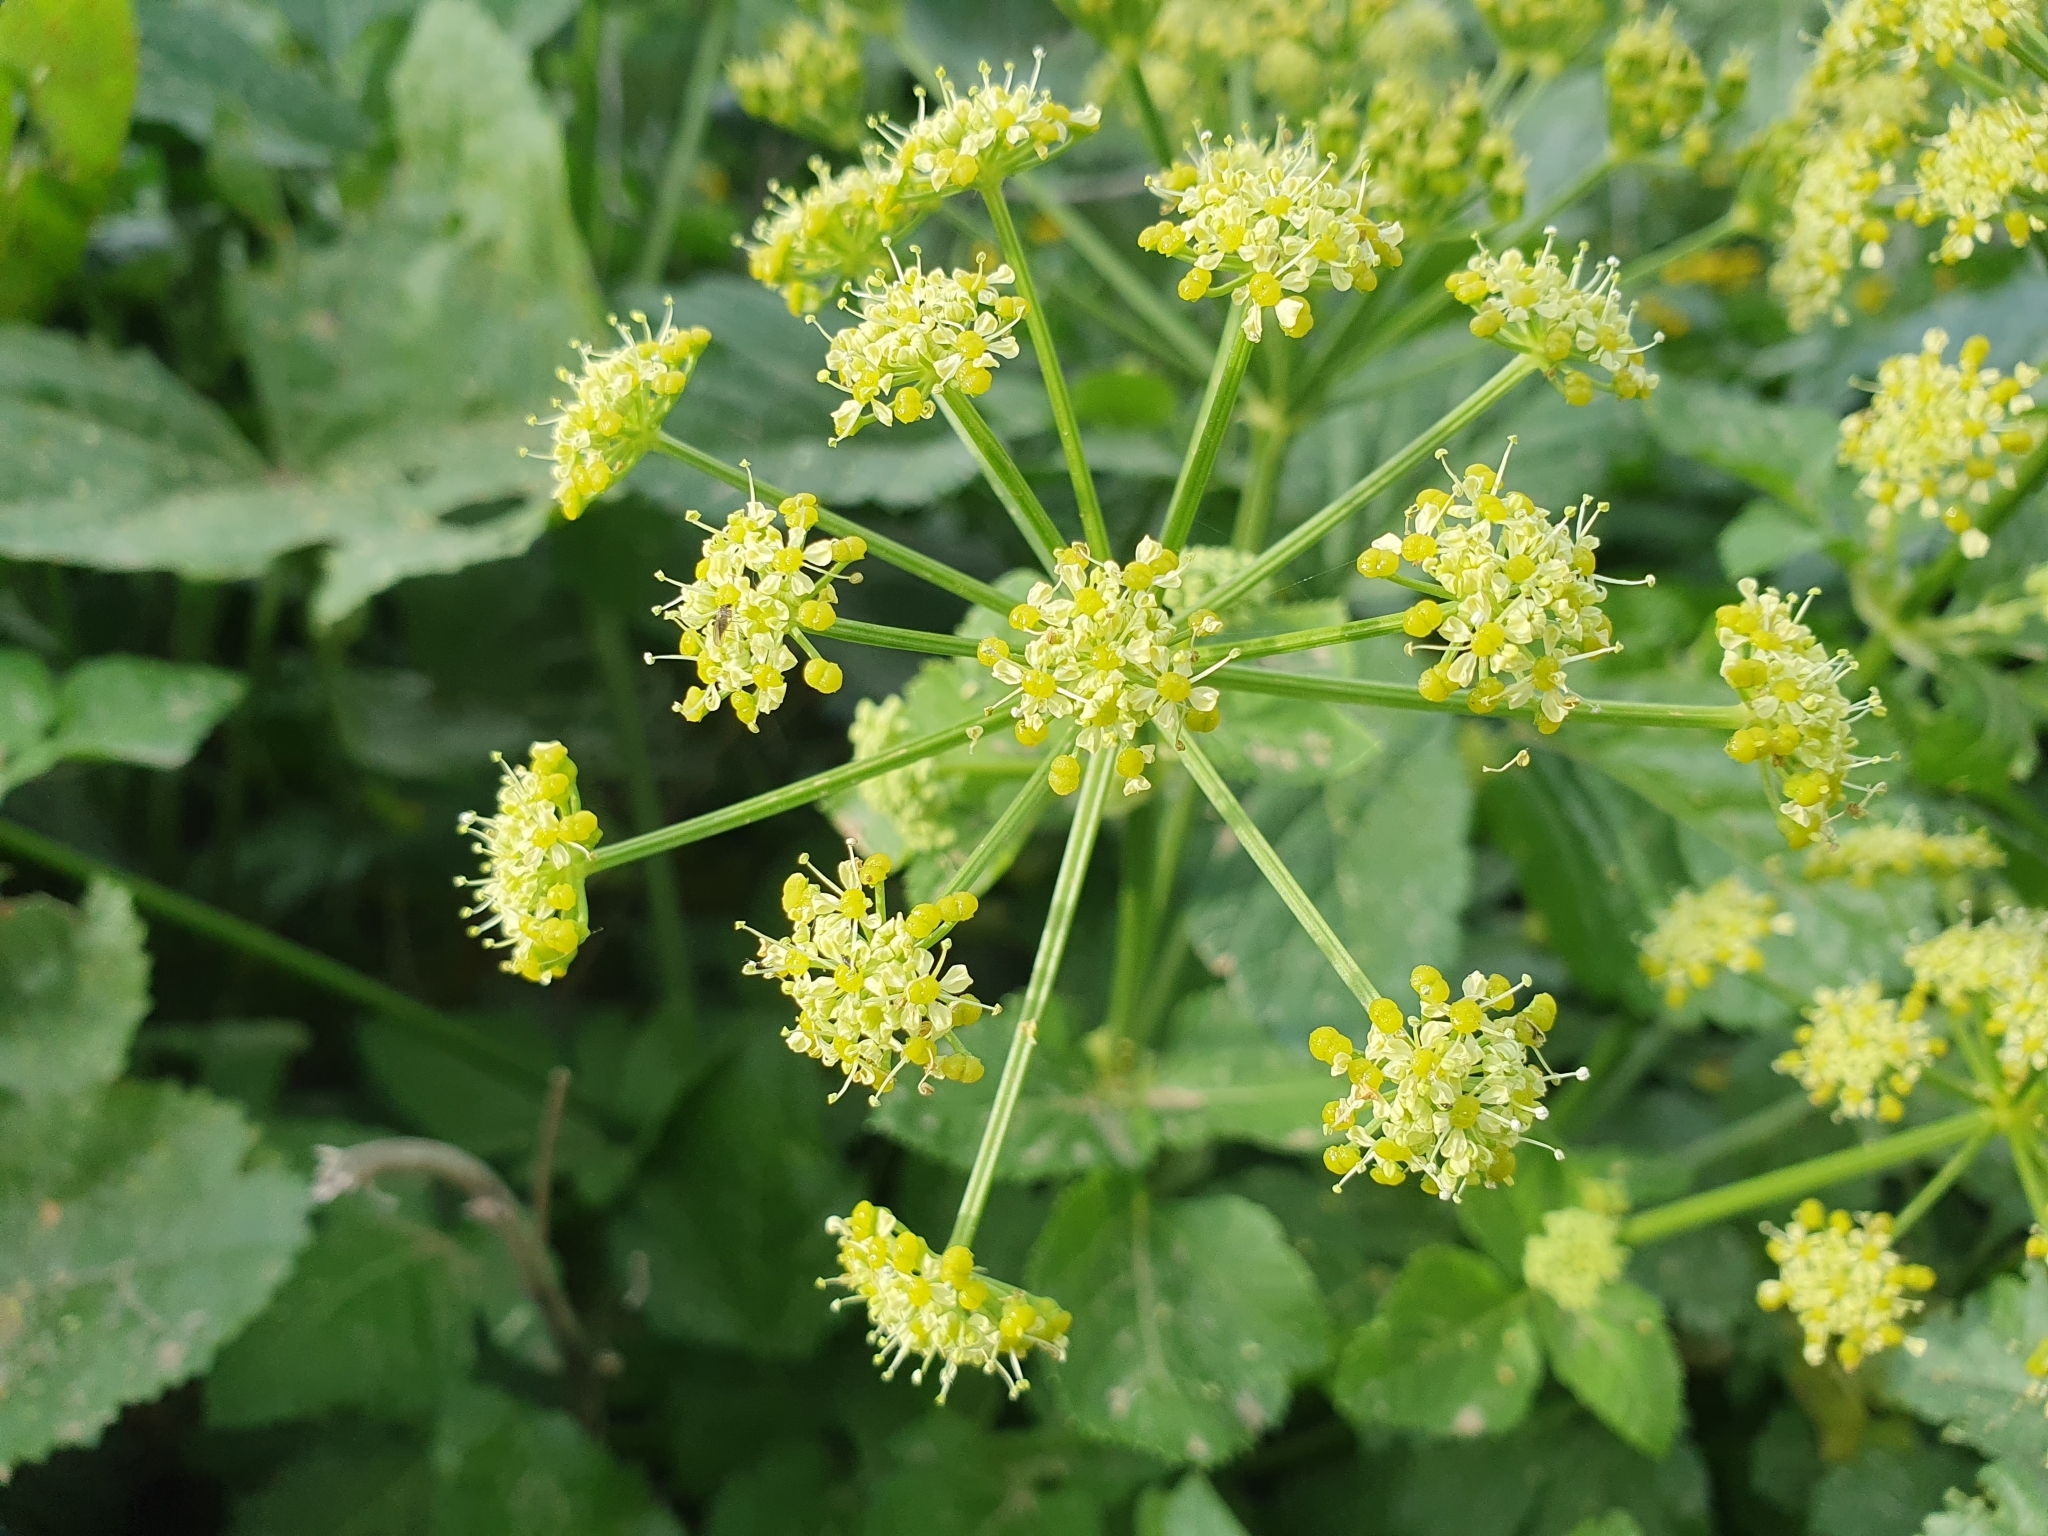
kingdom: Plantae
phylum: Tracheophyta
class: Magnoliopsida
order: Apiales
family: Apiaceae
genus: Smyrnium
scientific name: Smyrnium olusatrum
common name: Alexanders
